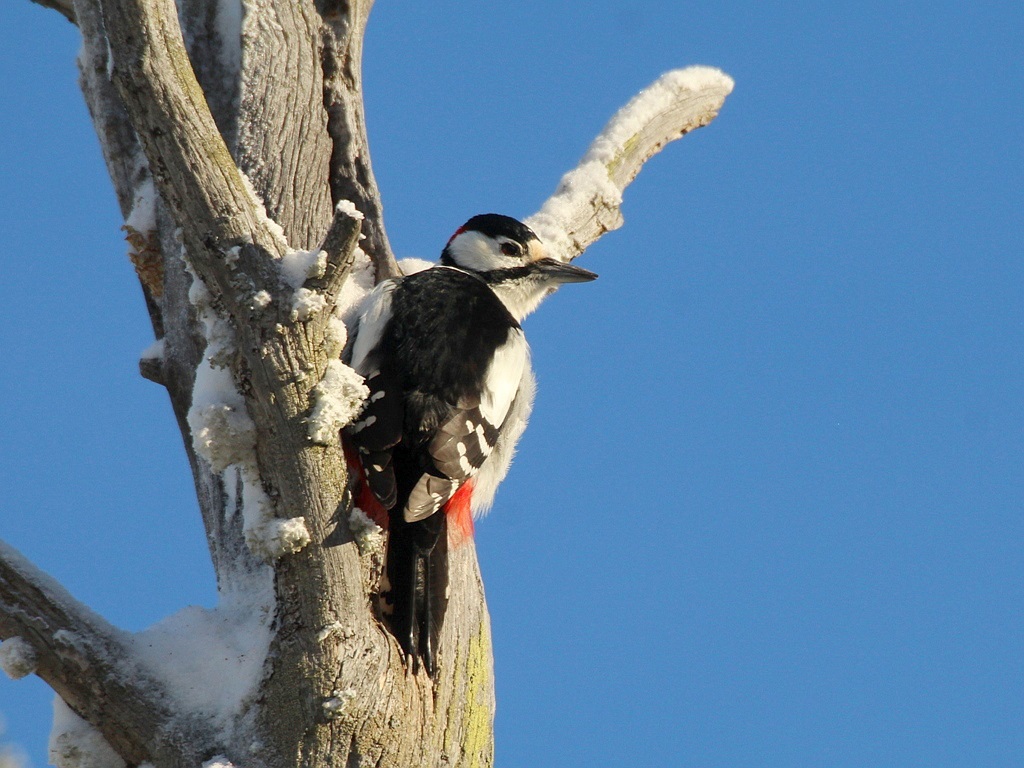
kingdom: Animalia
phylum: Chordata
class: Aves
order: Piciformes
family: Picidae
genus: Dendrocopos
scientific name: Dendrocopos major
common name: Great spotted woodpecker
